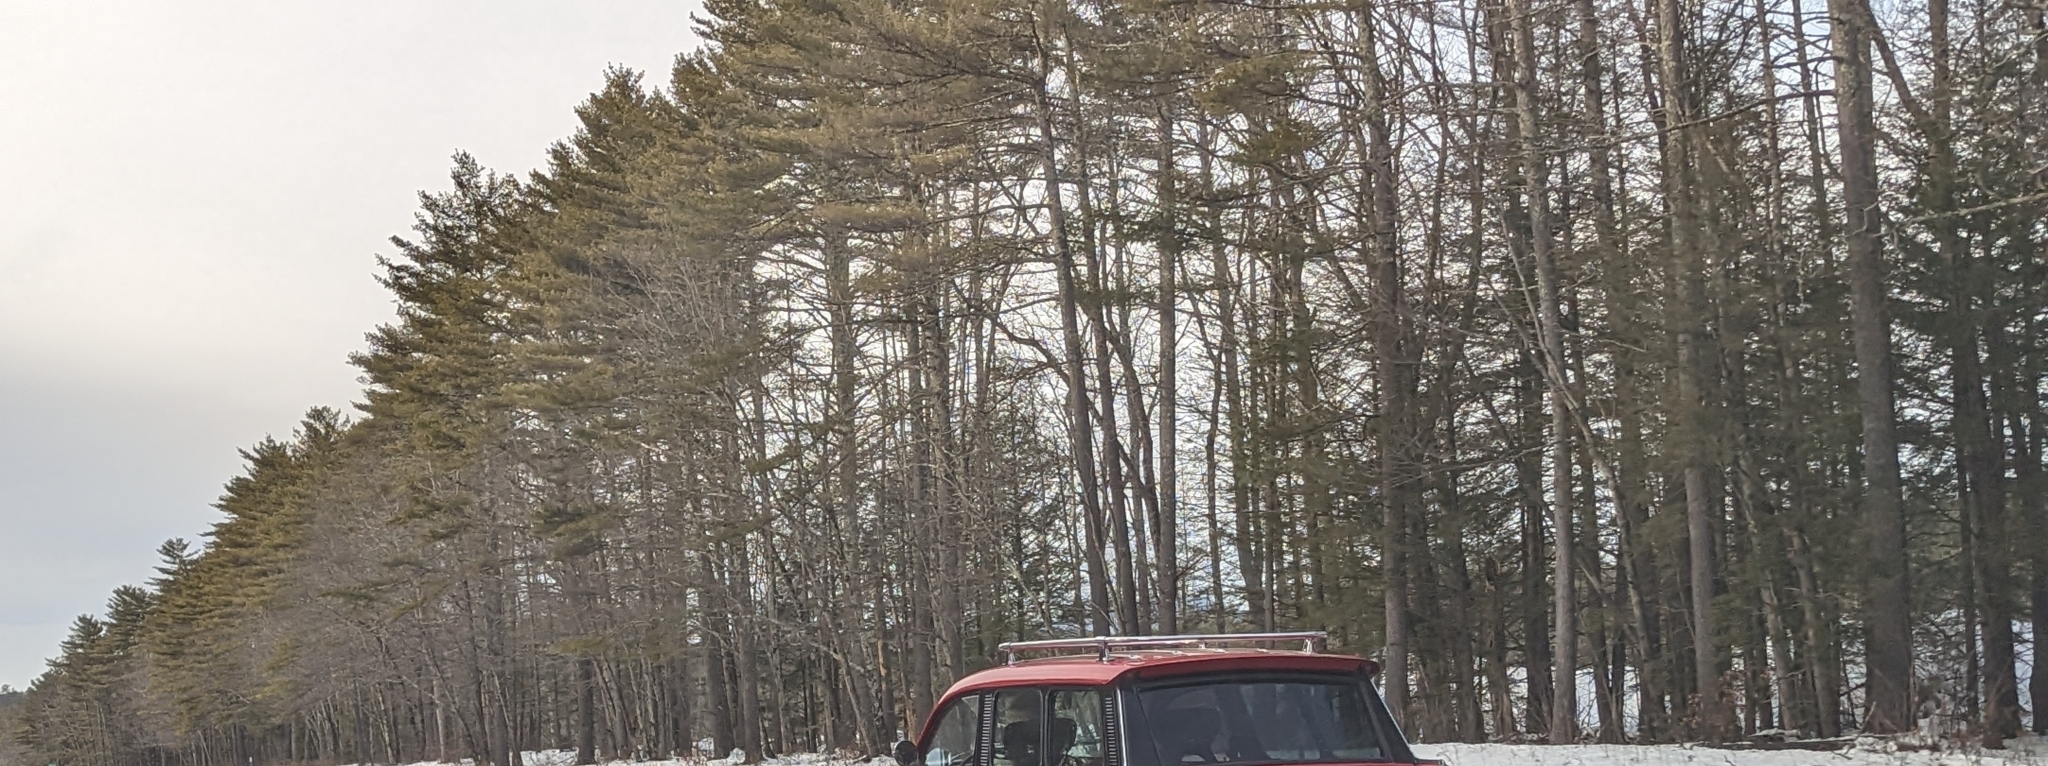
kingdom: Plantae
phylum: Tracheophyta
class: Pinopsida
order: Pinales
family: Pinaceae
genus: Pinus
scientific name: Pinus strobus
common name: Weymouth pine
